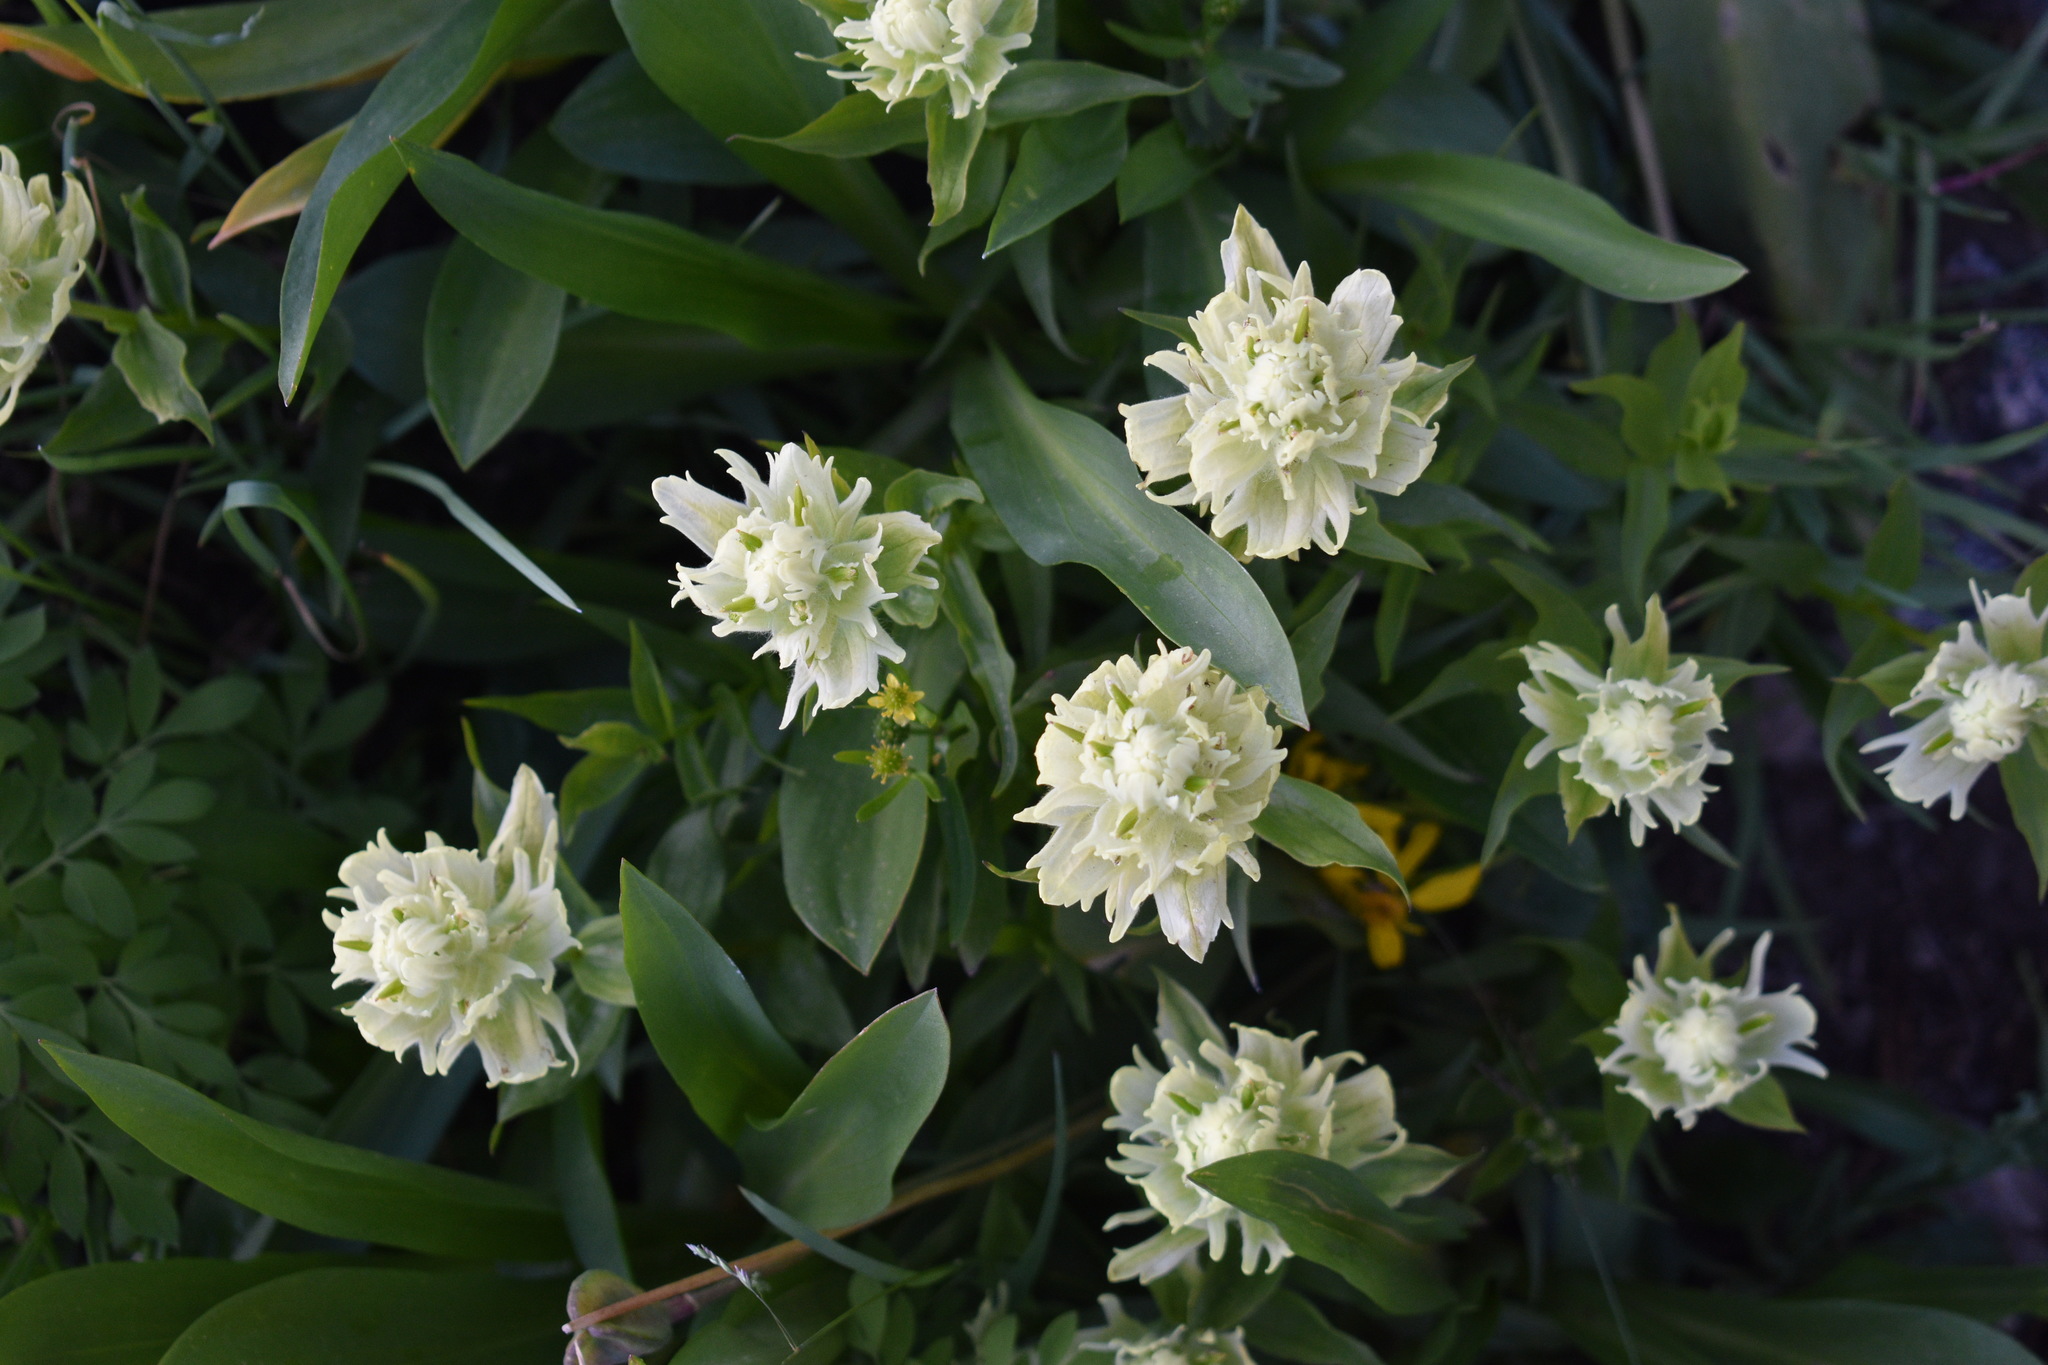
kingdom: Plantae
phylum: Tracheophyta
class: Magnoliopsida
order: Lamiales
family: Orobanchaceae
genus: Castilleja
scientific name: Castilleja occidentalis
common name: Western paintbrush
